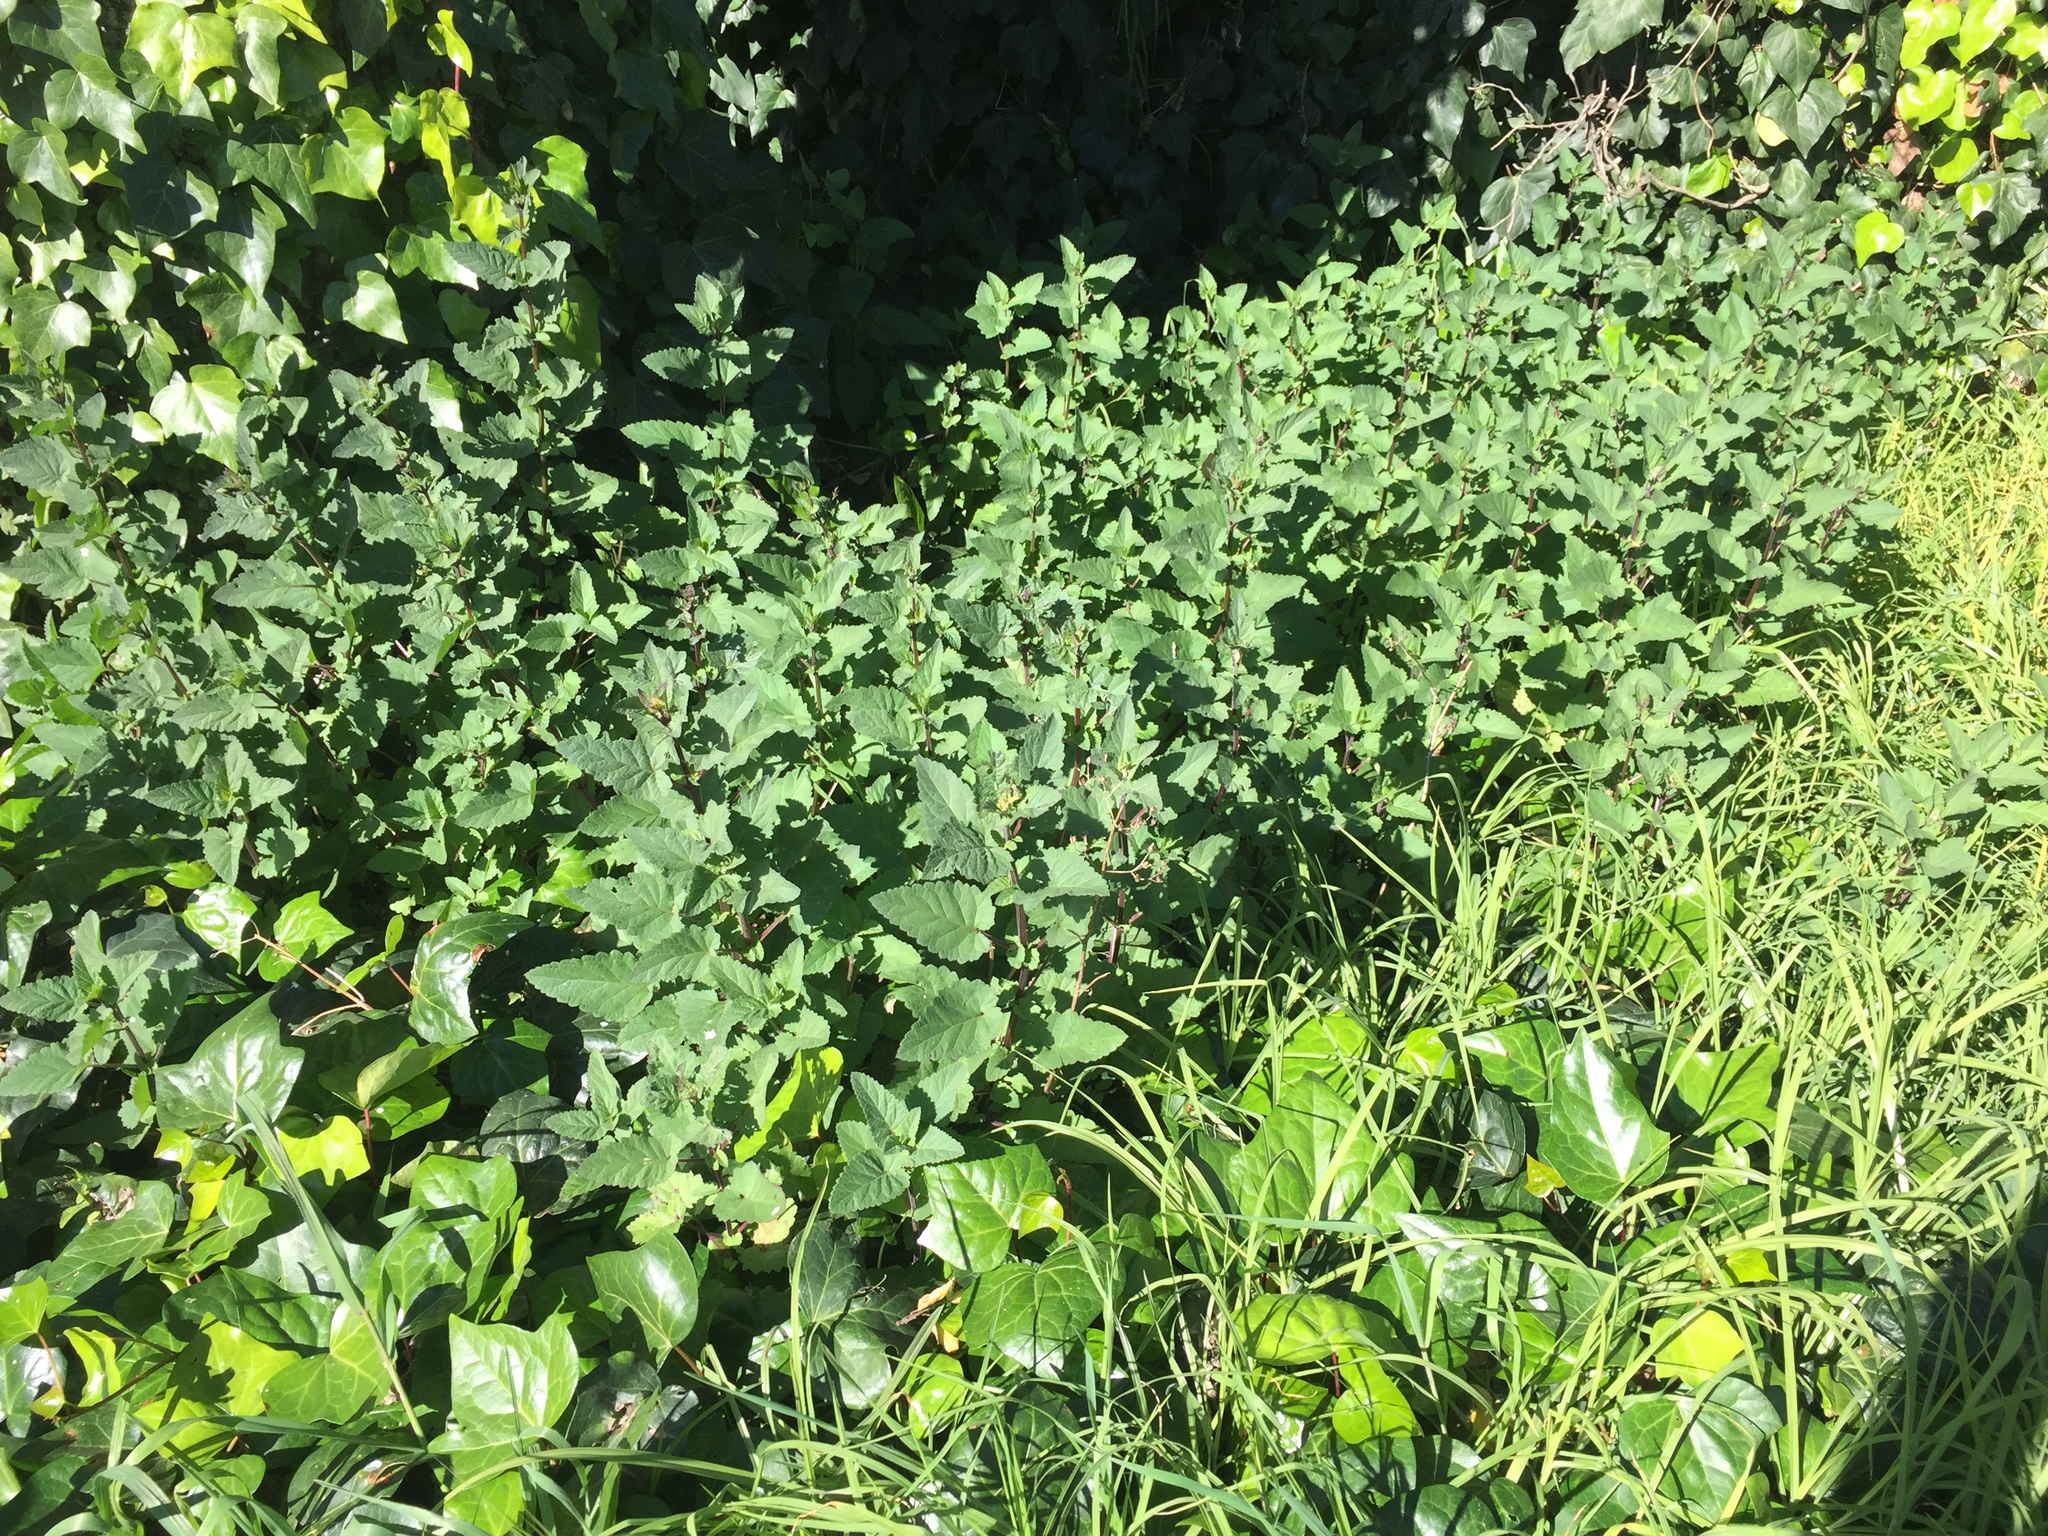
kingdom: Plantae
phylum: Tracheophyta
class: Magnoliopsida
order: Lamiales
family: Scrophulariaceae
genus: Scrophularia
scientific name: Scrophularia californica
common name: California figwort
